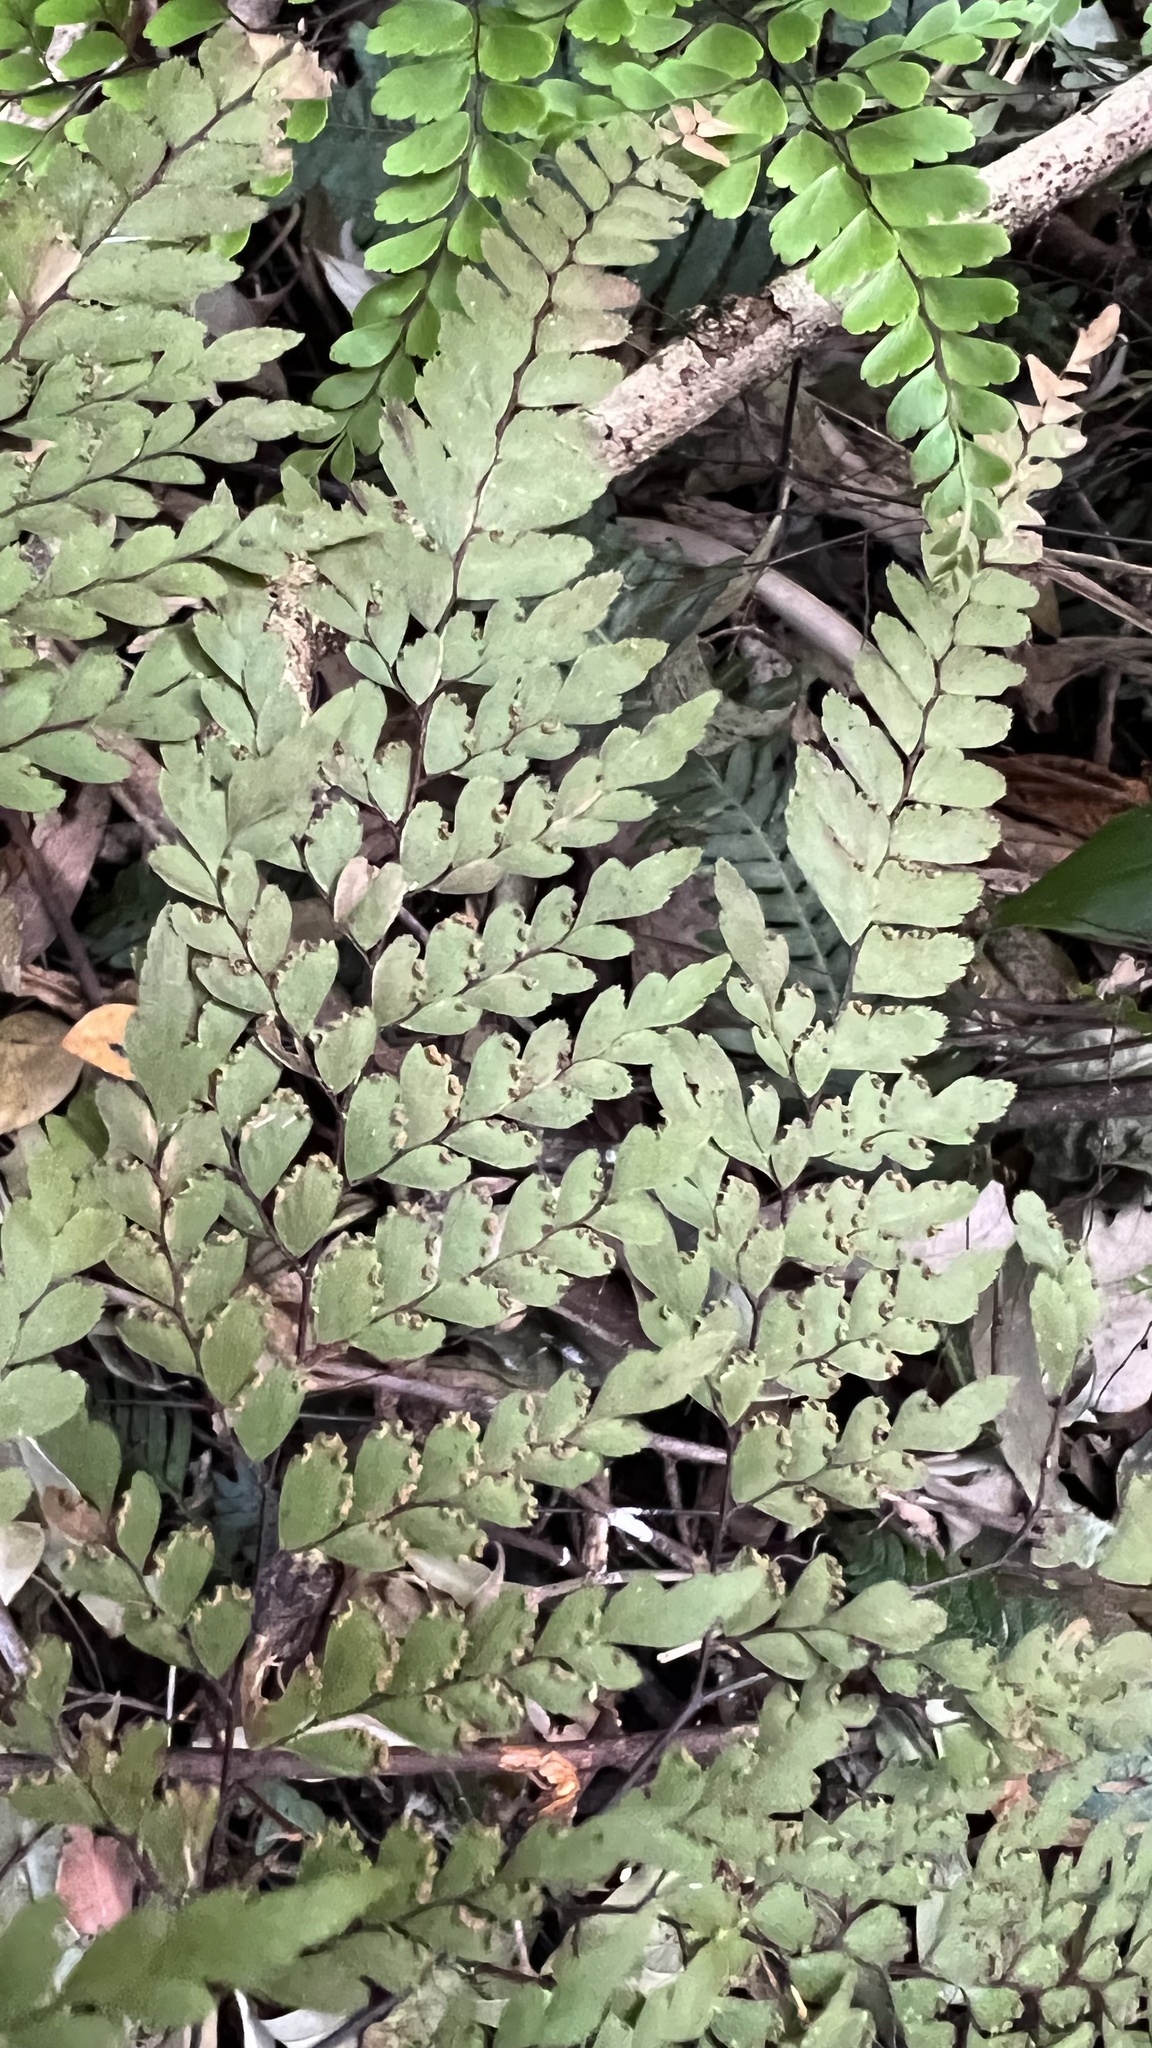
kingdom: Plantae
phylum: Tracheophyta
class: Polypodiopsida
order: Polypodiales
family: Pteridaceae
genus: Adiantum
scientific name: Adiantum formosum
